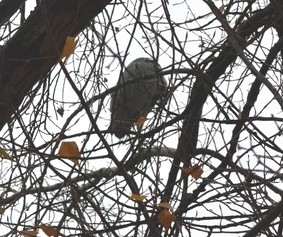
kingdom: Animalia
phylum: Chordata
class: Aves
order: Pelecaniformes
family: Ardeidae
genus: Ardea
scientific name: Ardea cinerea
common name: Grey heron
